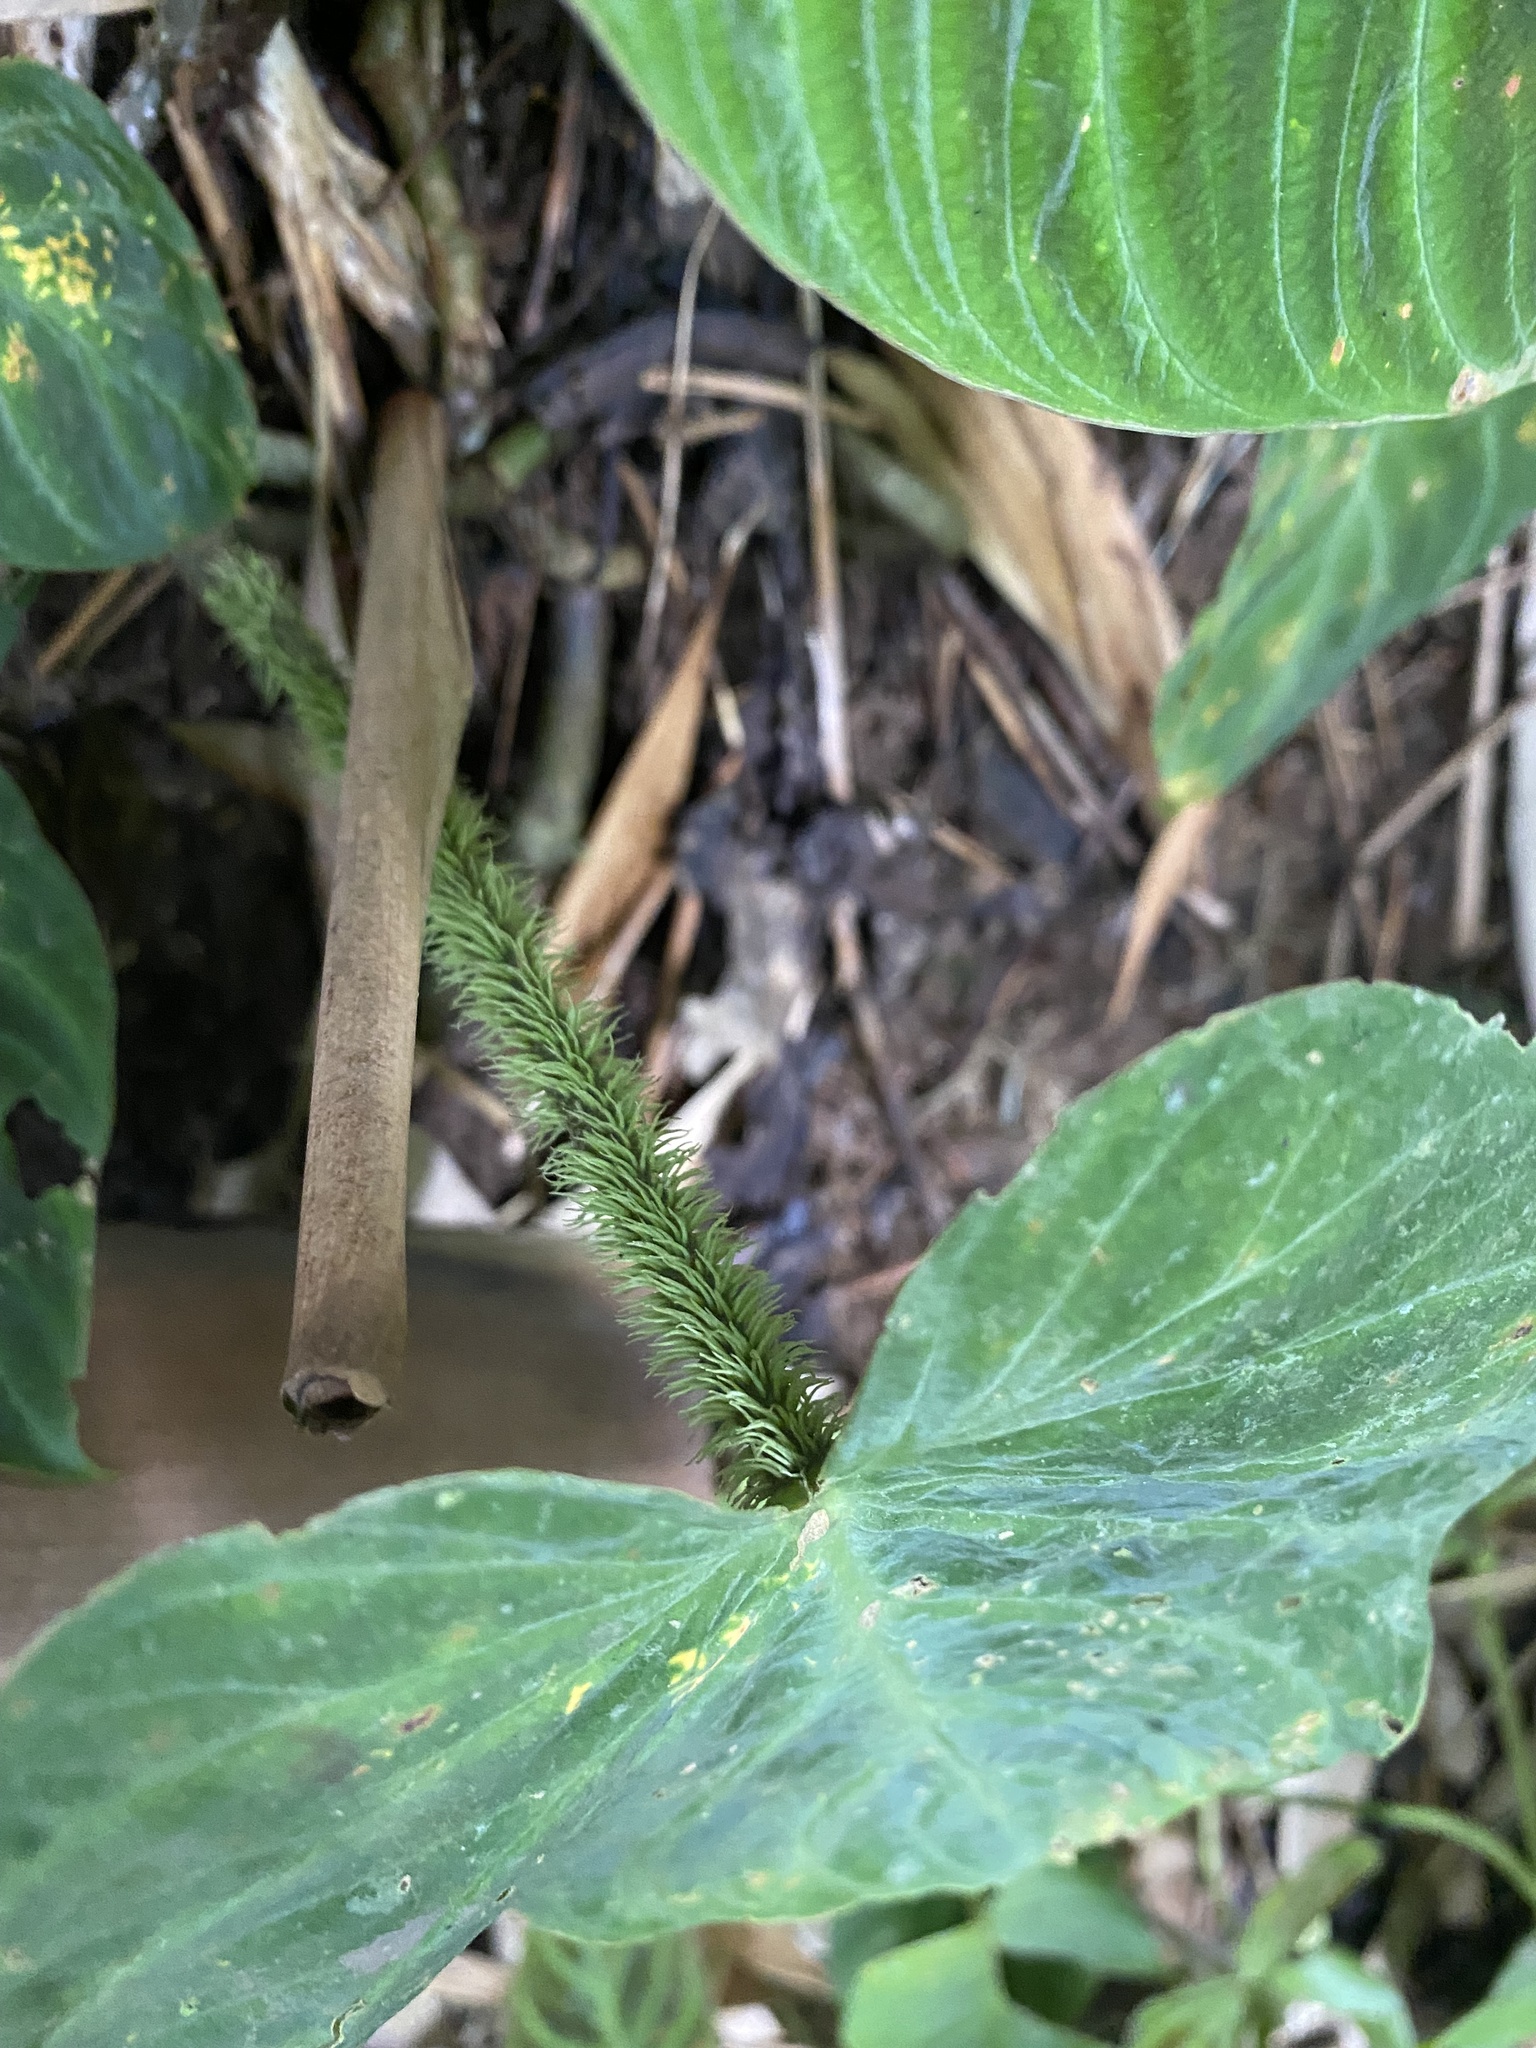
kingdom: Plantae
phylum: Tracheophyta
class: Liliopsida
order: Alismatales
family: Araceae
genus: Philodendron
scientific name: Philodendron verrucosum
